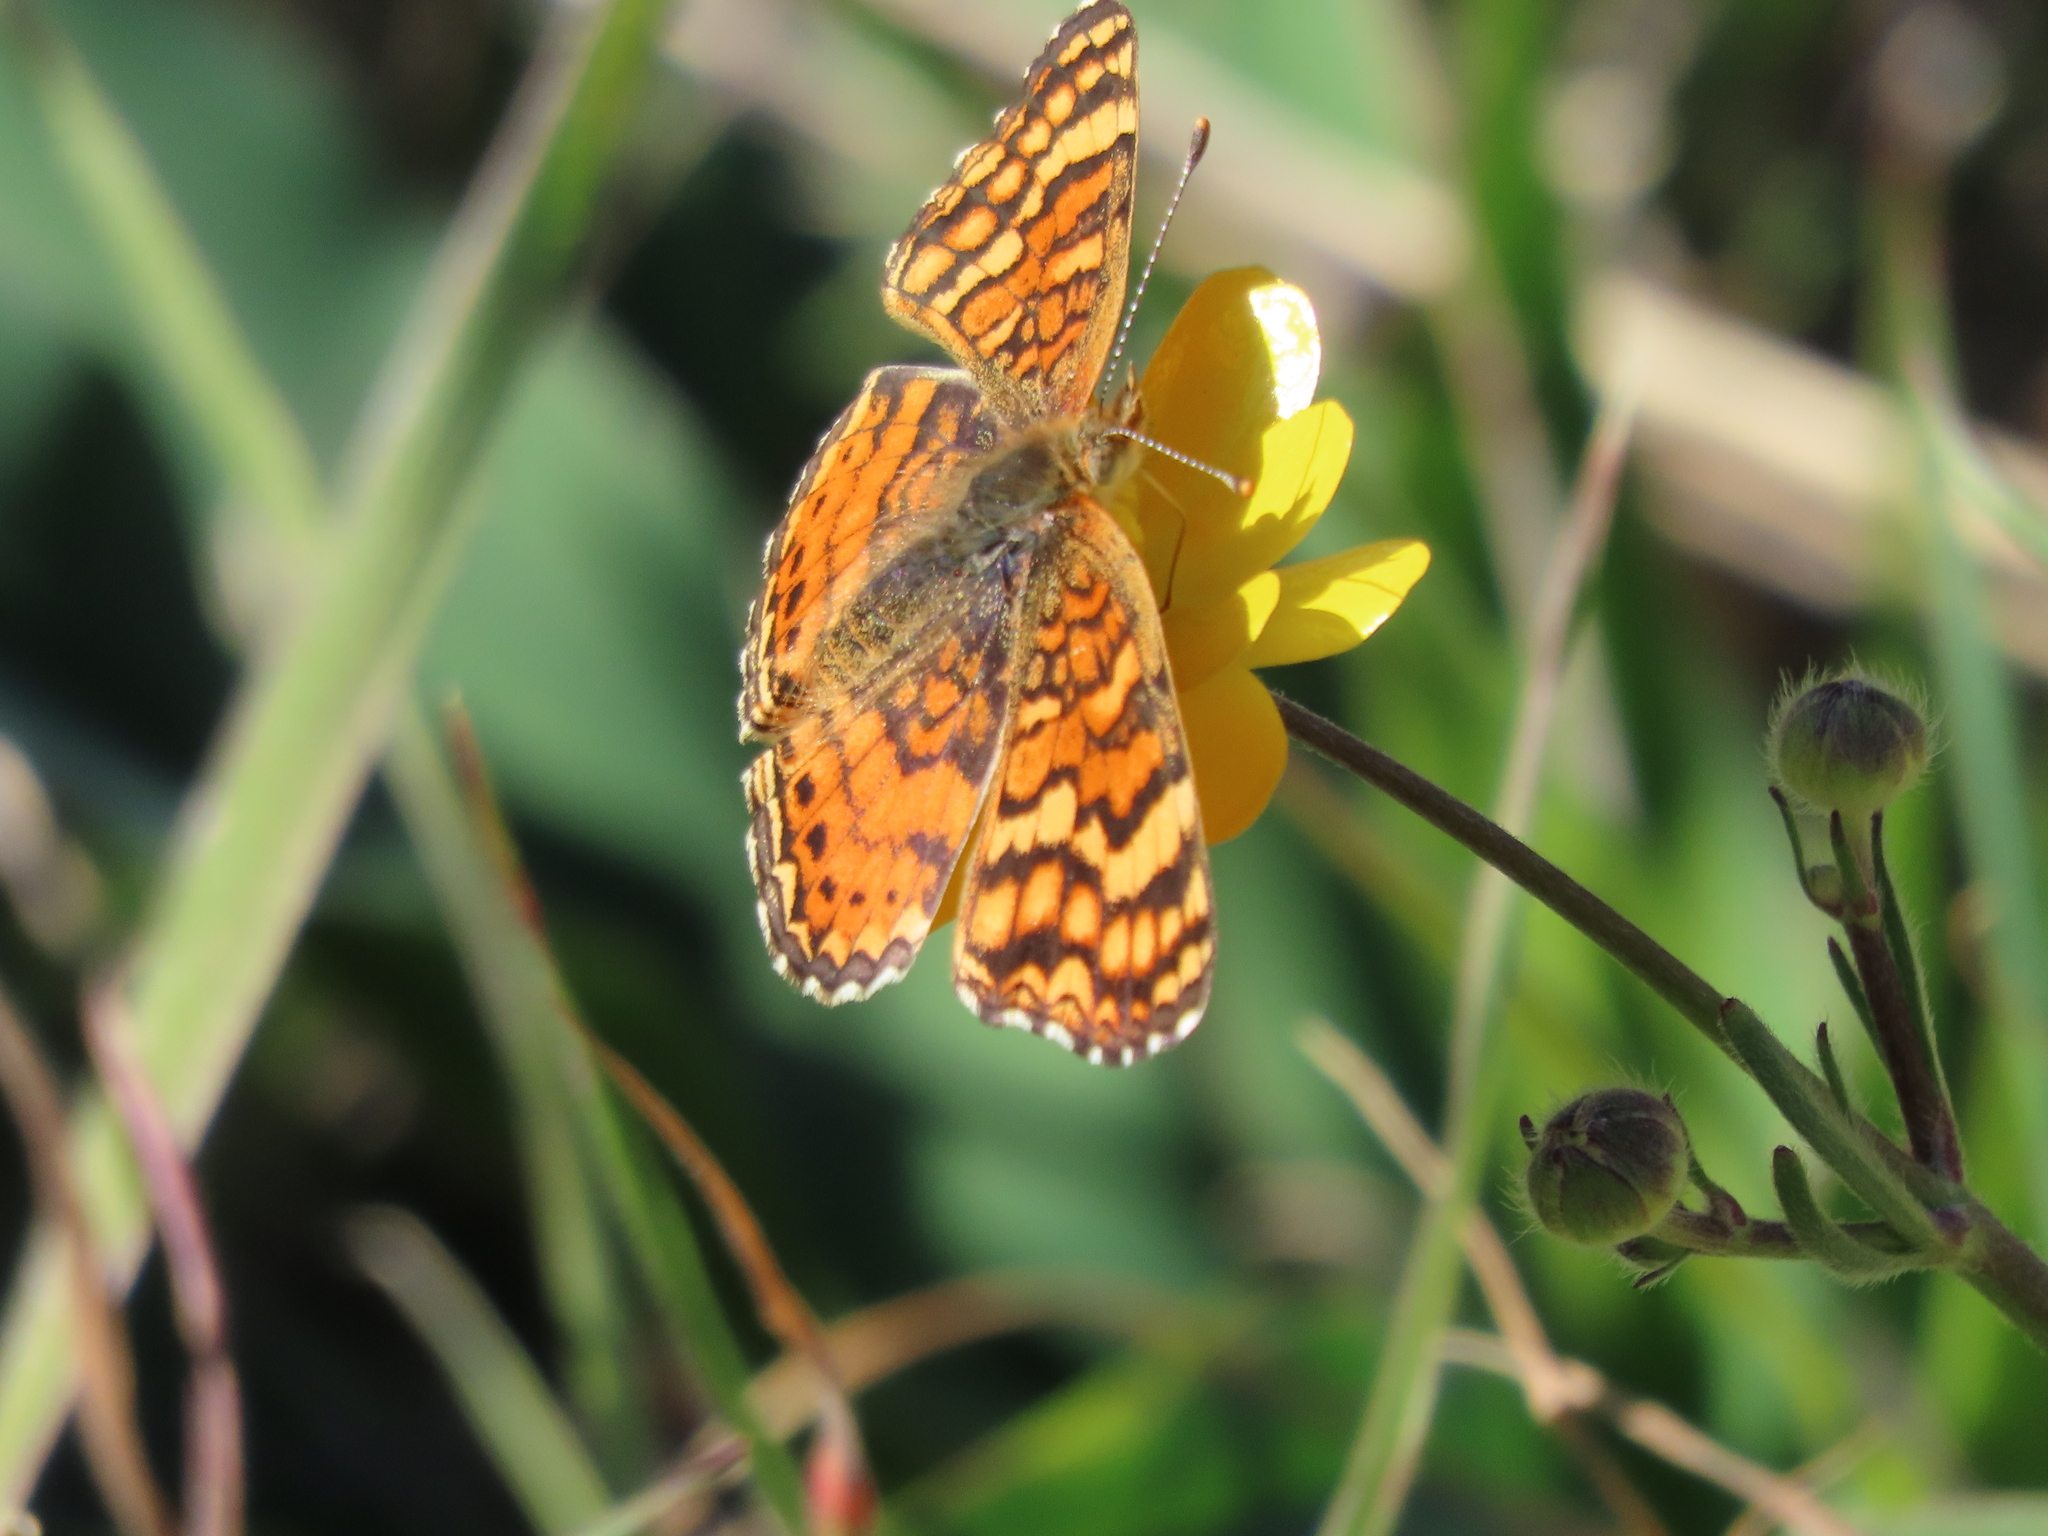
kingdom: Animalia
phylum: Arthropoda
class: Insecta
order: Lepidoptera
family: Nymphalidae
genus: Eresia
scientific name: Eresia aveyrona
